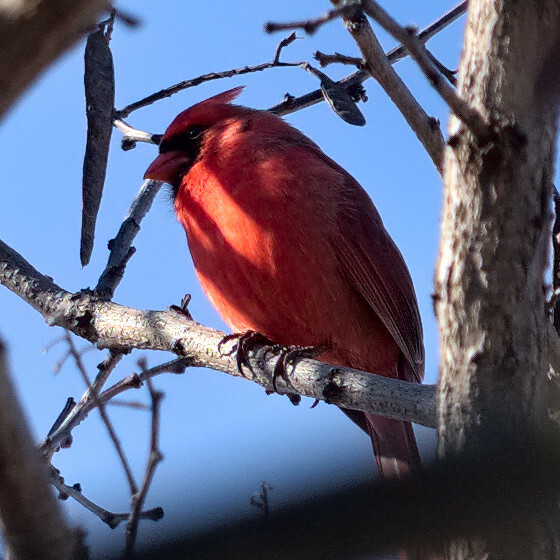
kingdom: Animalia
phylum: Chordata
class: Aves
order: Passeriformes
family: Cardinalidae
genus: Cardinalis
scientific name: Cardinalis cardinalis
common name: Northern cardinal
